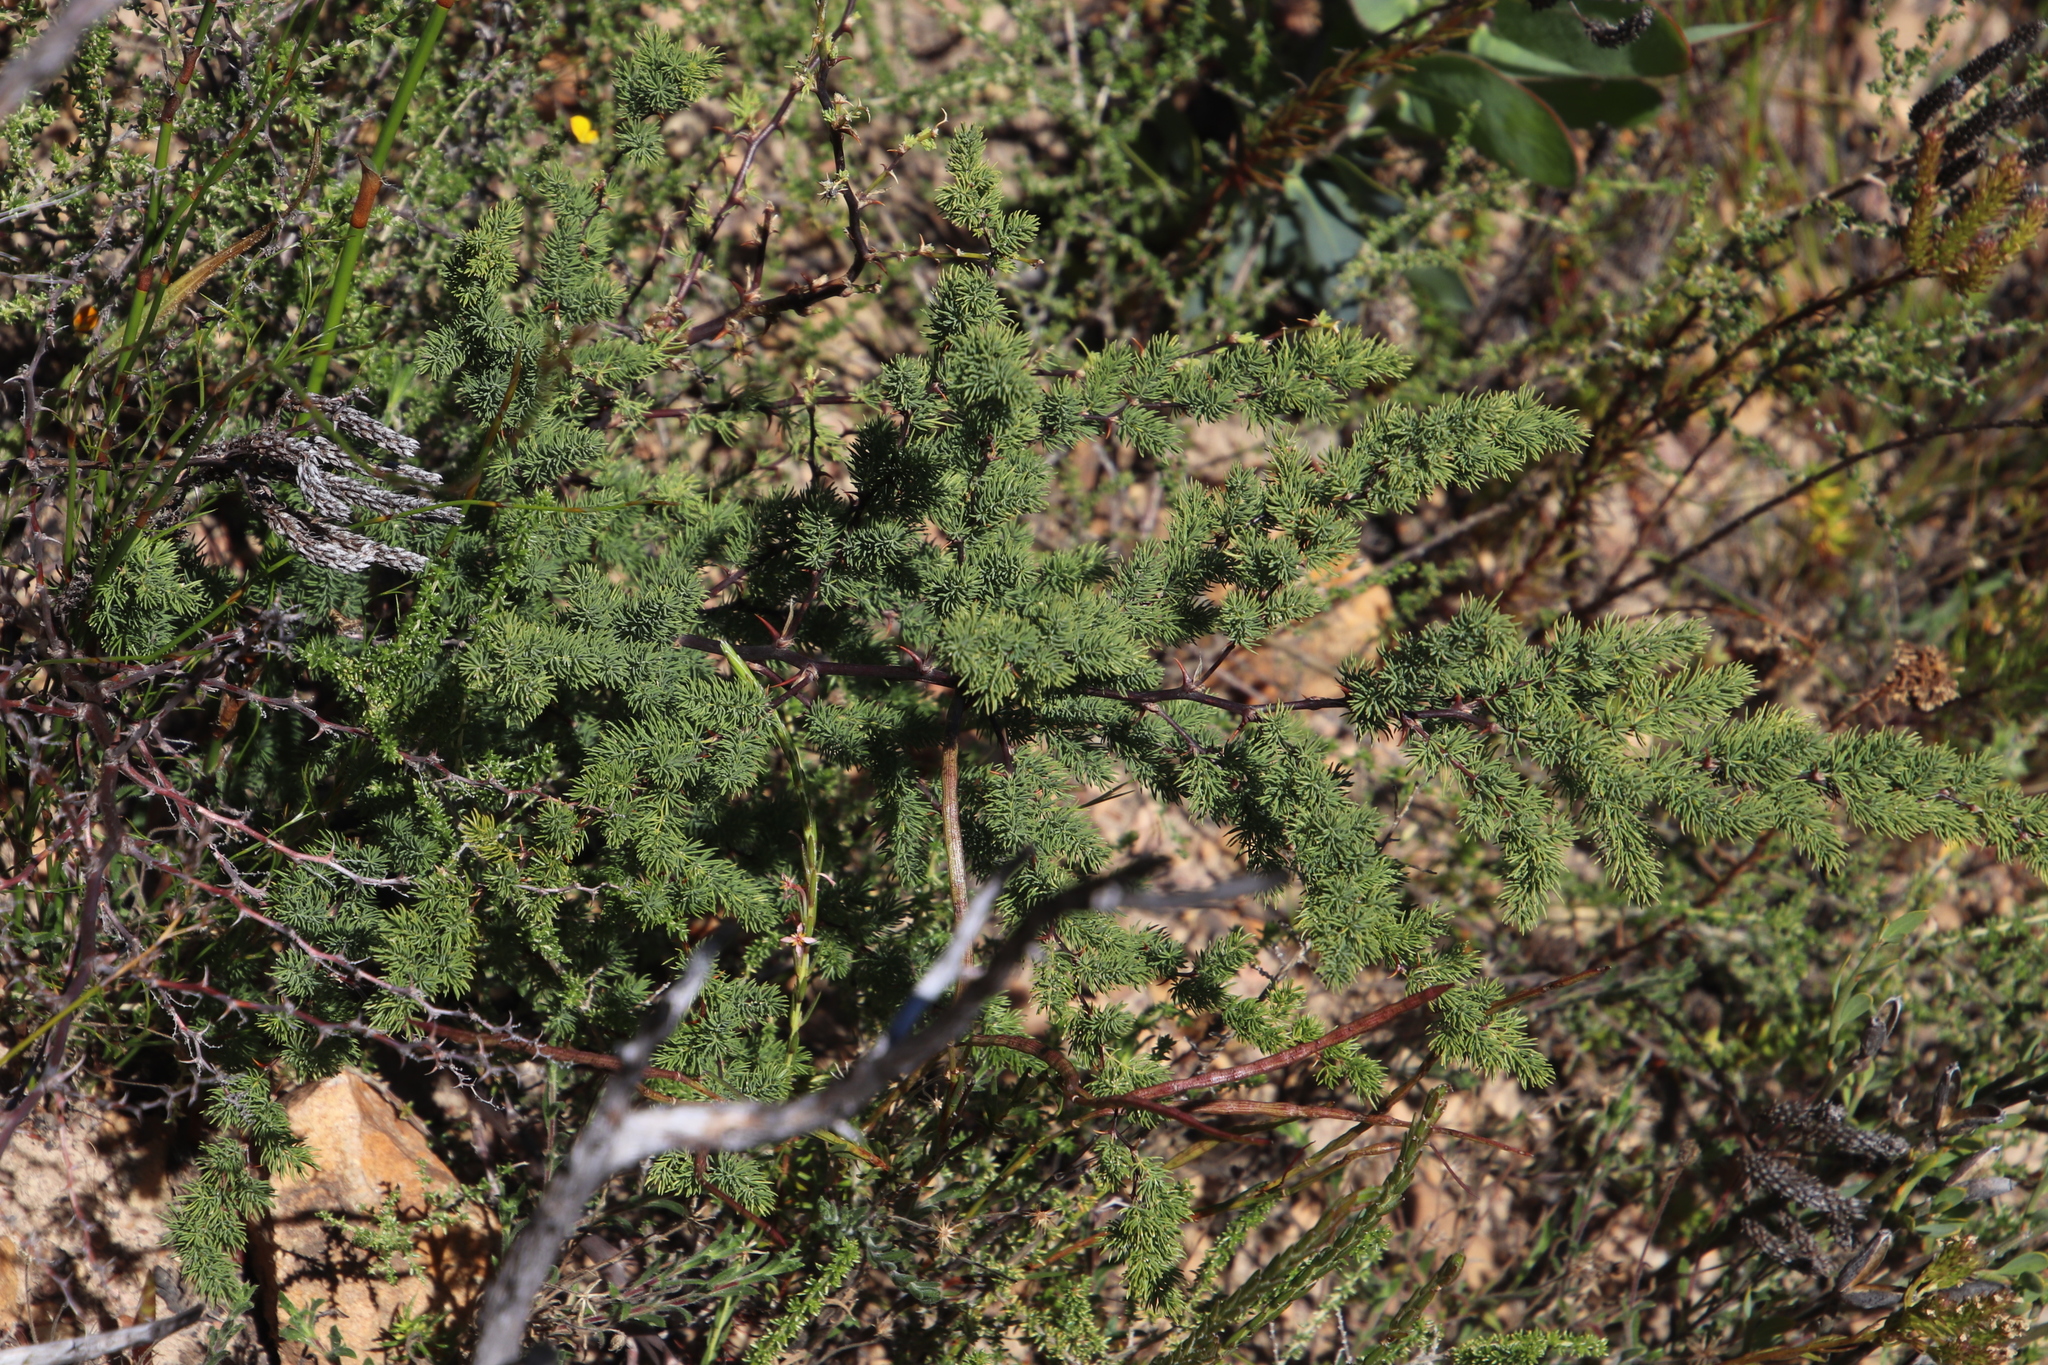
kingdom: Plantae
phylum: Tracheophyta
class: Liliopsida
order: Asparagales
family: Asparagaceae
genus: Asparagus
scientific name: Asparagus rubicundus
